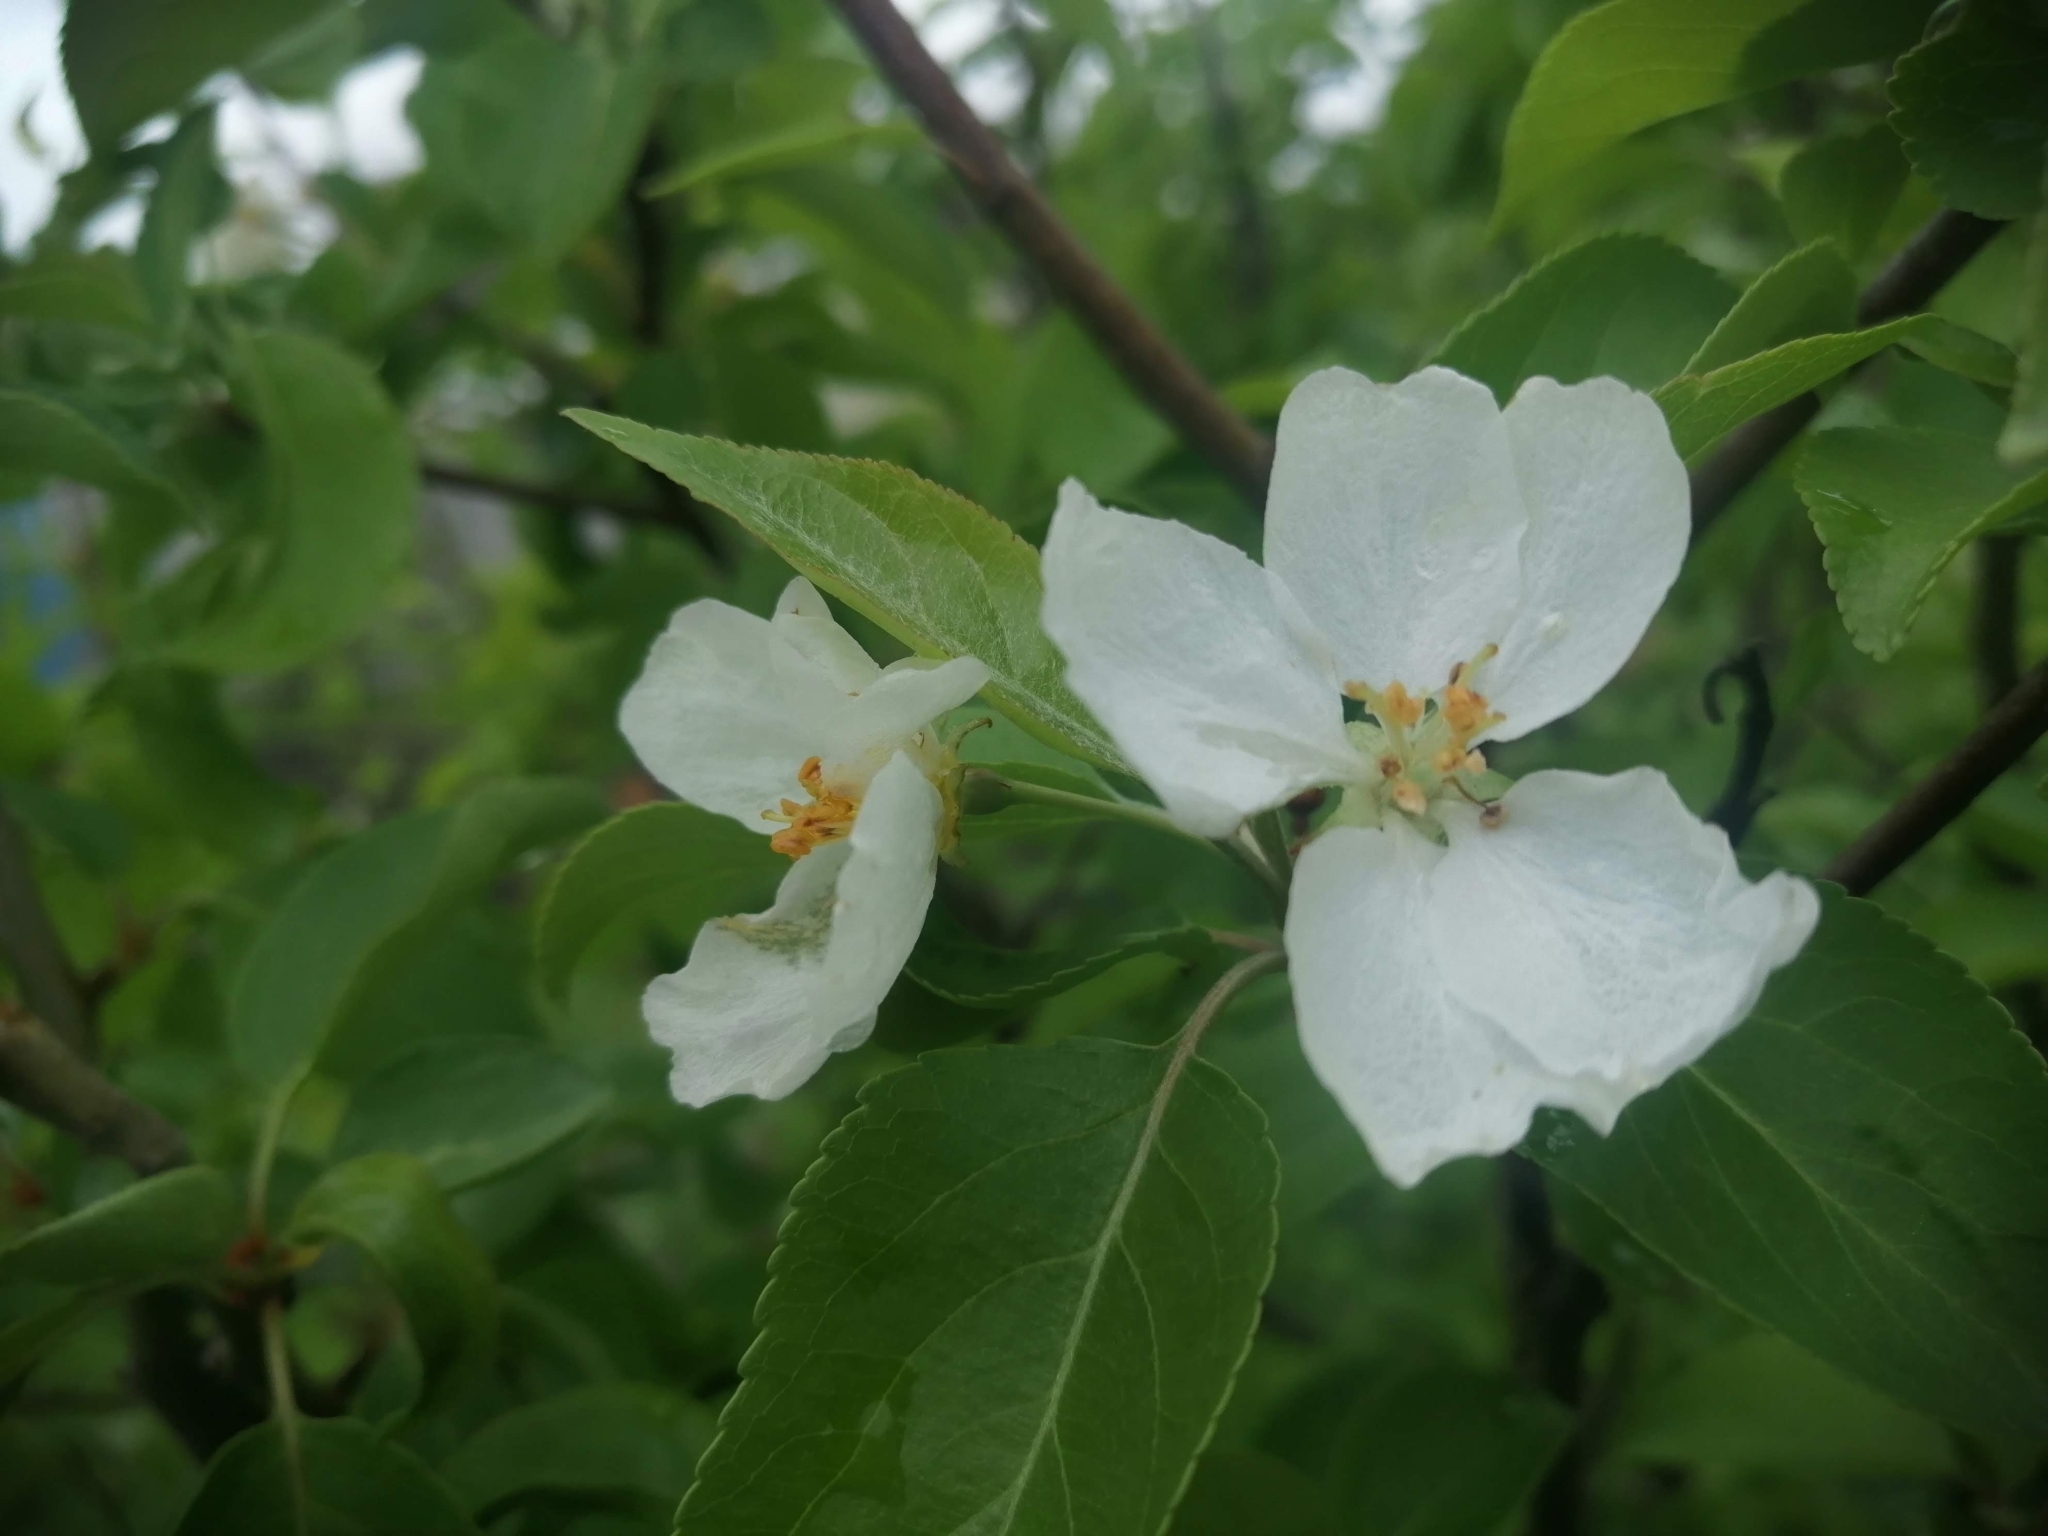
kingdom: Plantae
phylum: Tracheophyta
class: Magnoliopsida
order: Rosales
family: Rosaceae
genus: Malus
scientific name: Malus baccata
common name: Siberian crab
